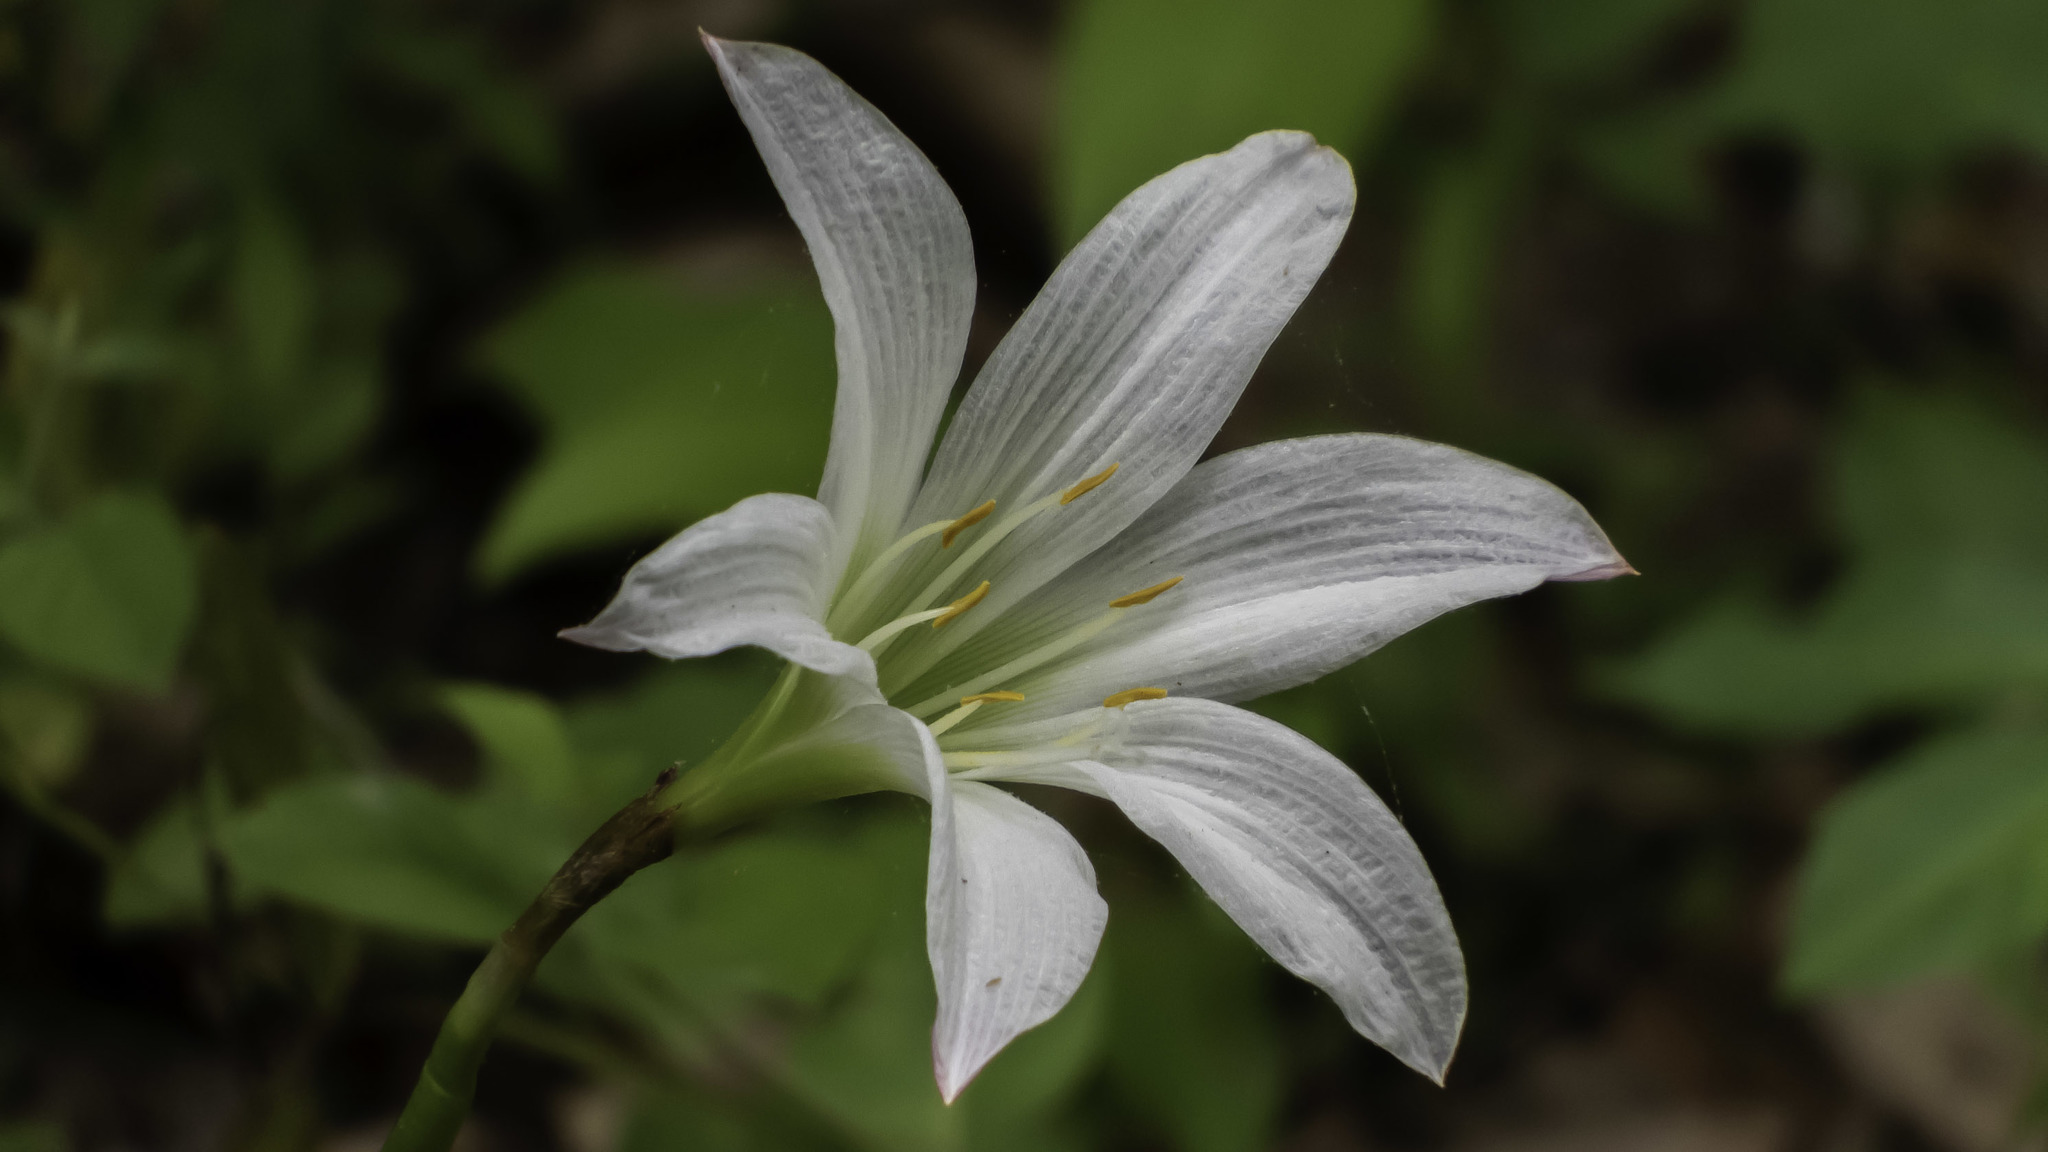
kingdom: Plantae
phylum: Tracheophyta
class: Liliopsida
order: Asparagales
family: Amaryllidaceae
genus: Zephyranthes
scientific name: Zephyranthes atamasco
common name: Atamasco lily
